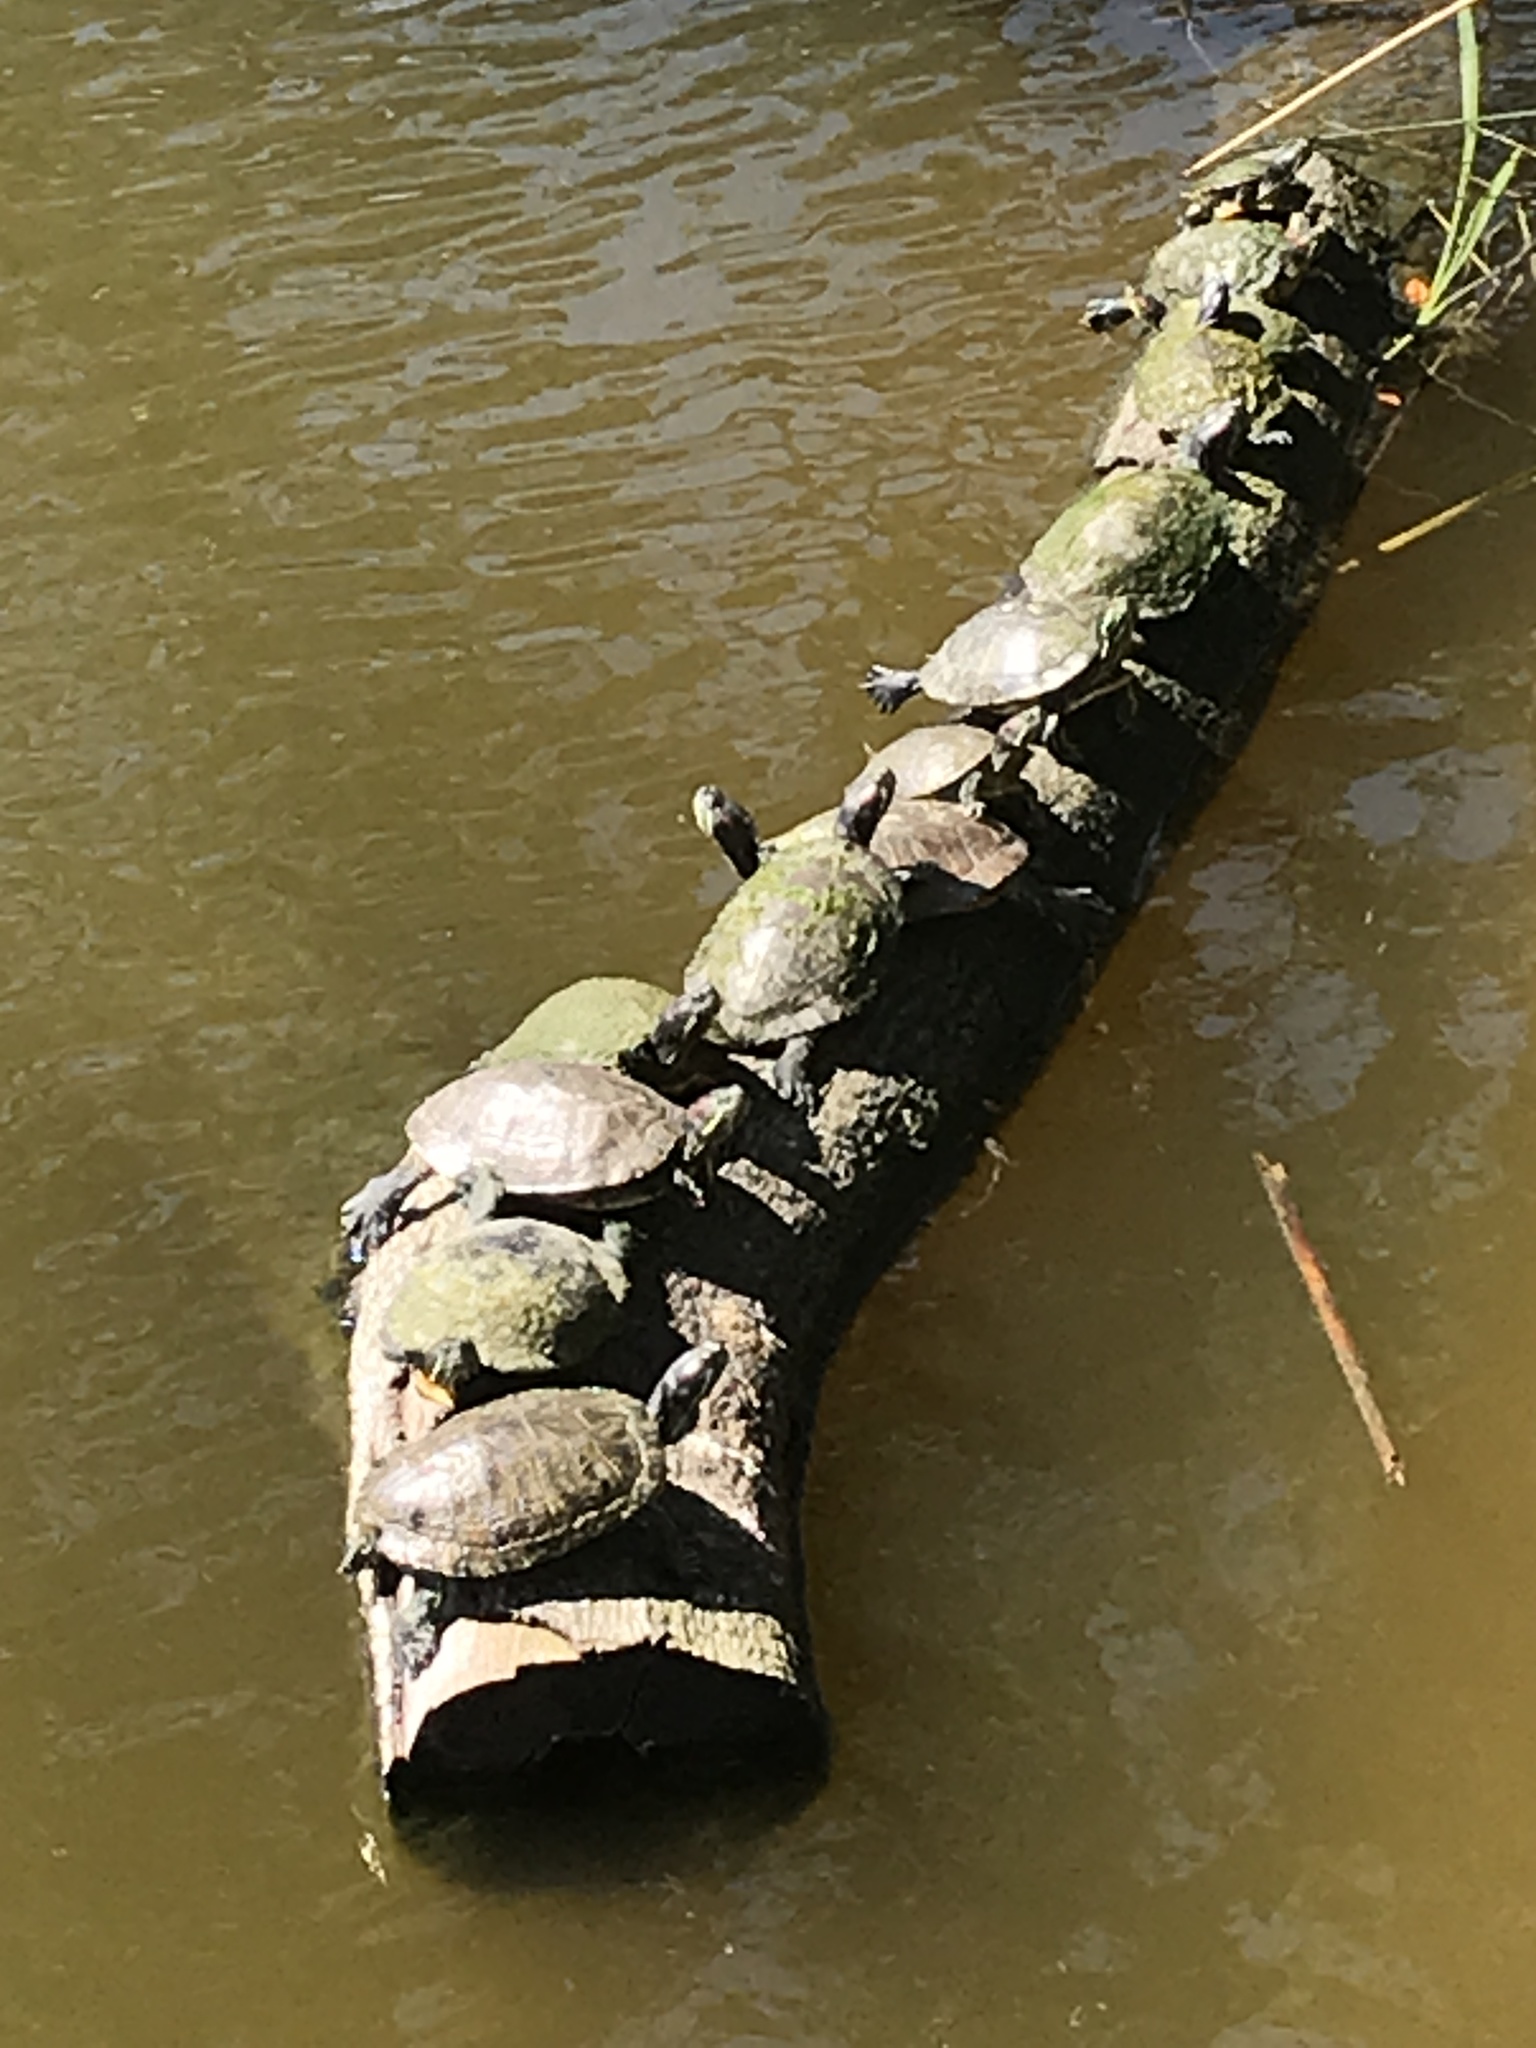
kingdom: Animalia
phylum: Chordata
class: Testudines
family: Emydidae
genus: Trachemys
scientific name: Trachemys scripta
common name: Slider
